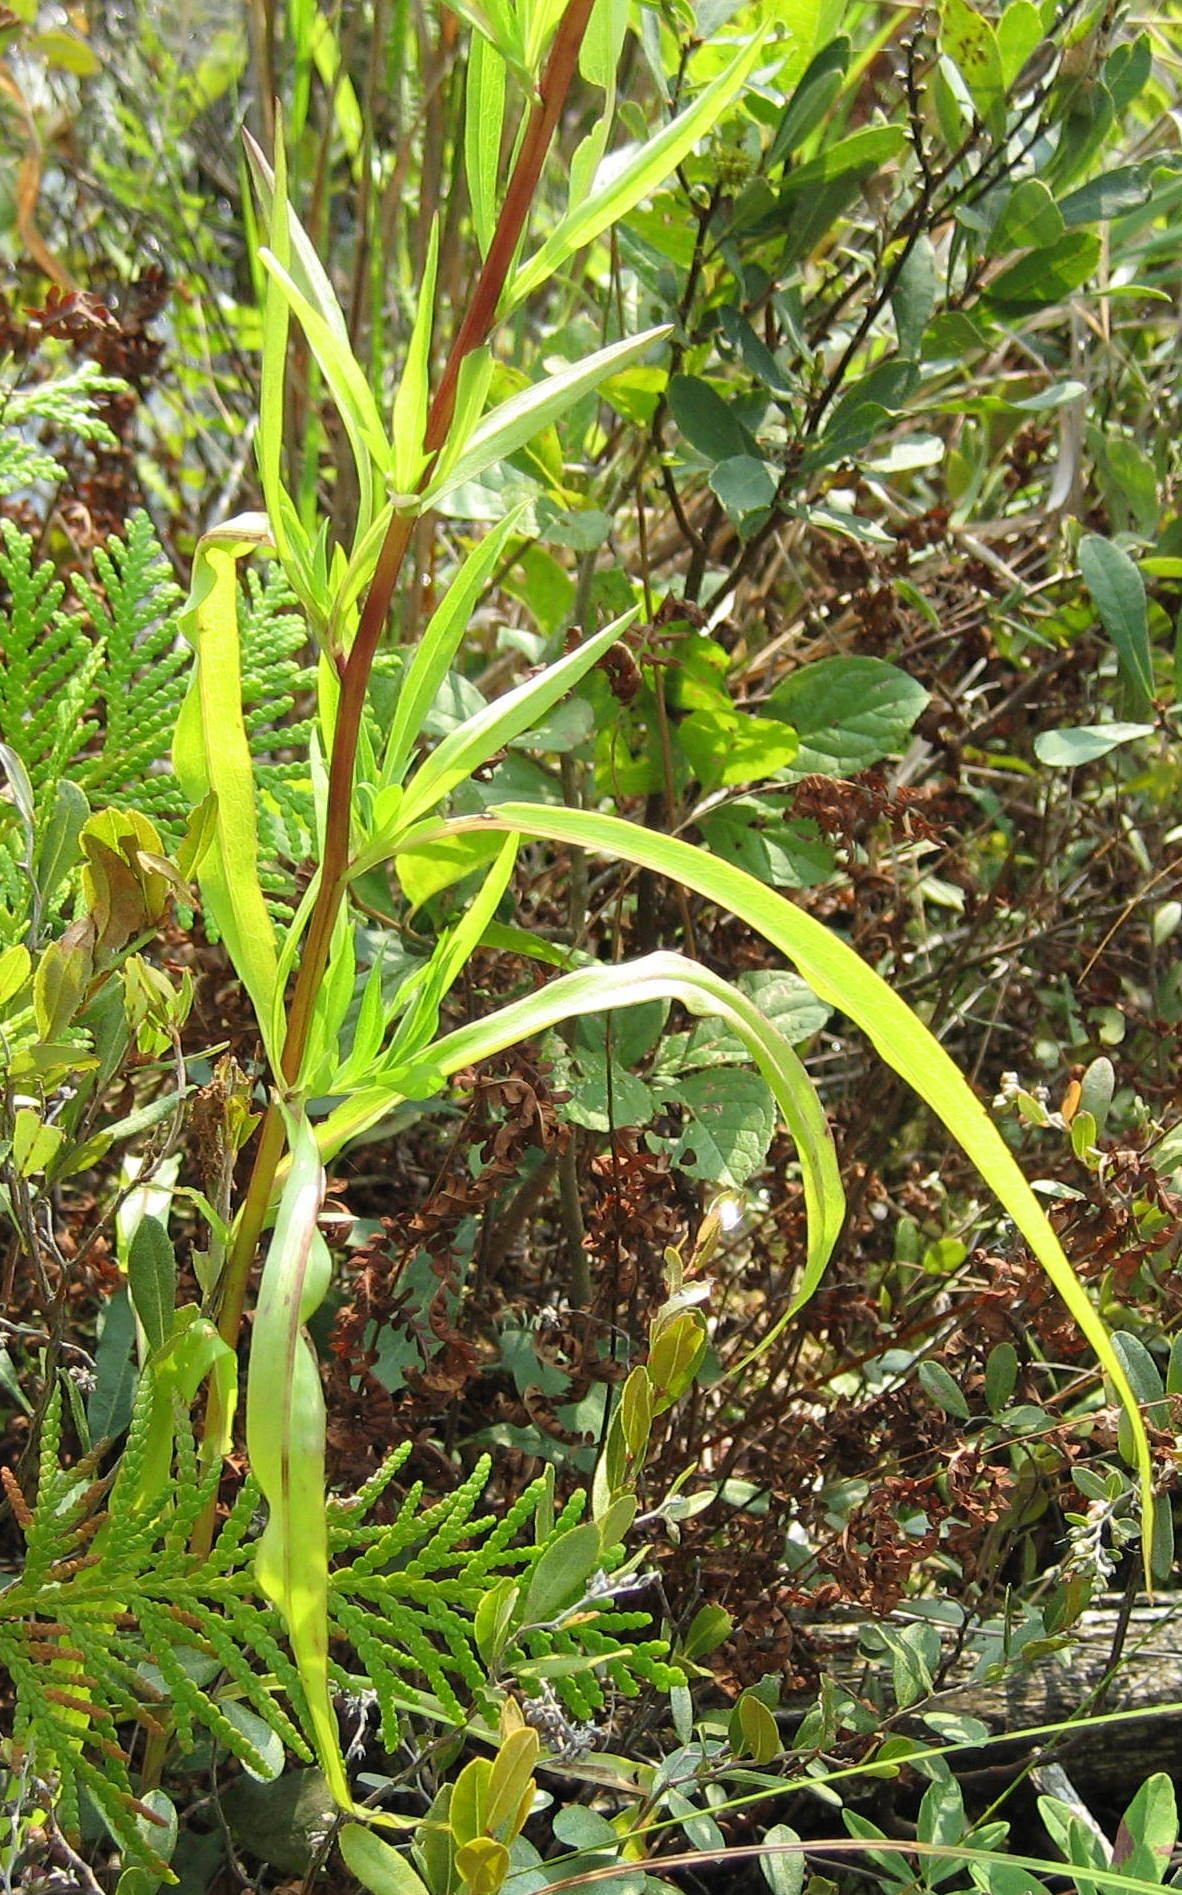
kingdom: Plantae
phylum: Tracheophyta
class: Magnoliopsida
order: Asterales
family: Asteraceae
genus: Symphyotrichum
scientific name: Symphyotrichum lanceolatum
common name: Panicled aster
